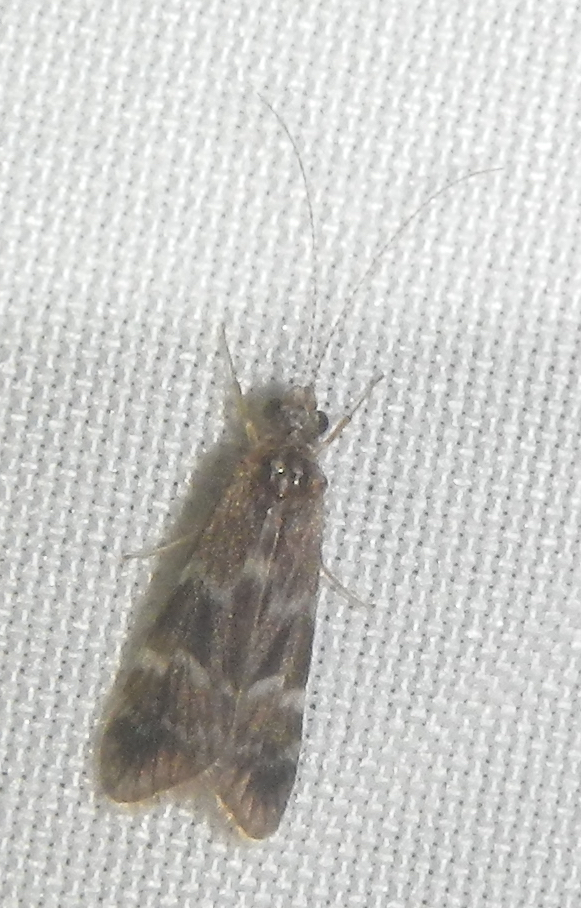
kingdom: Animalia
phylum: Arthropoda
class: Insecta
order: Trichoptera
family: Hydropsychidae
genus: Smicridea
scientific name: Smicridea fasciatella
